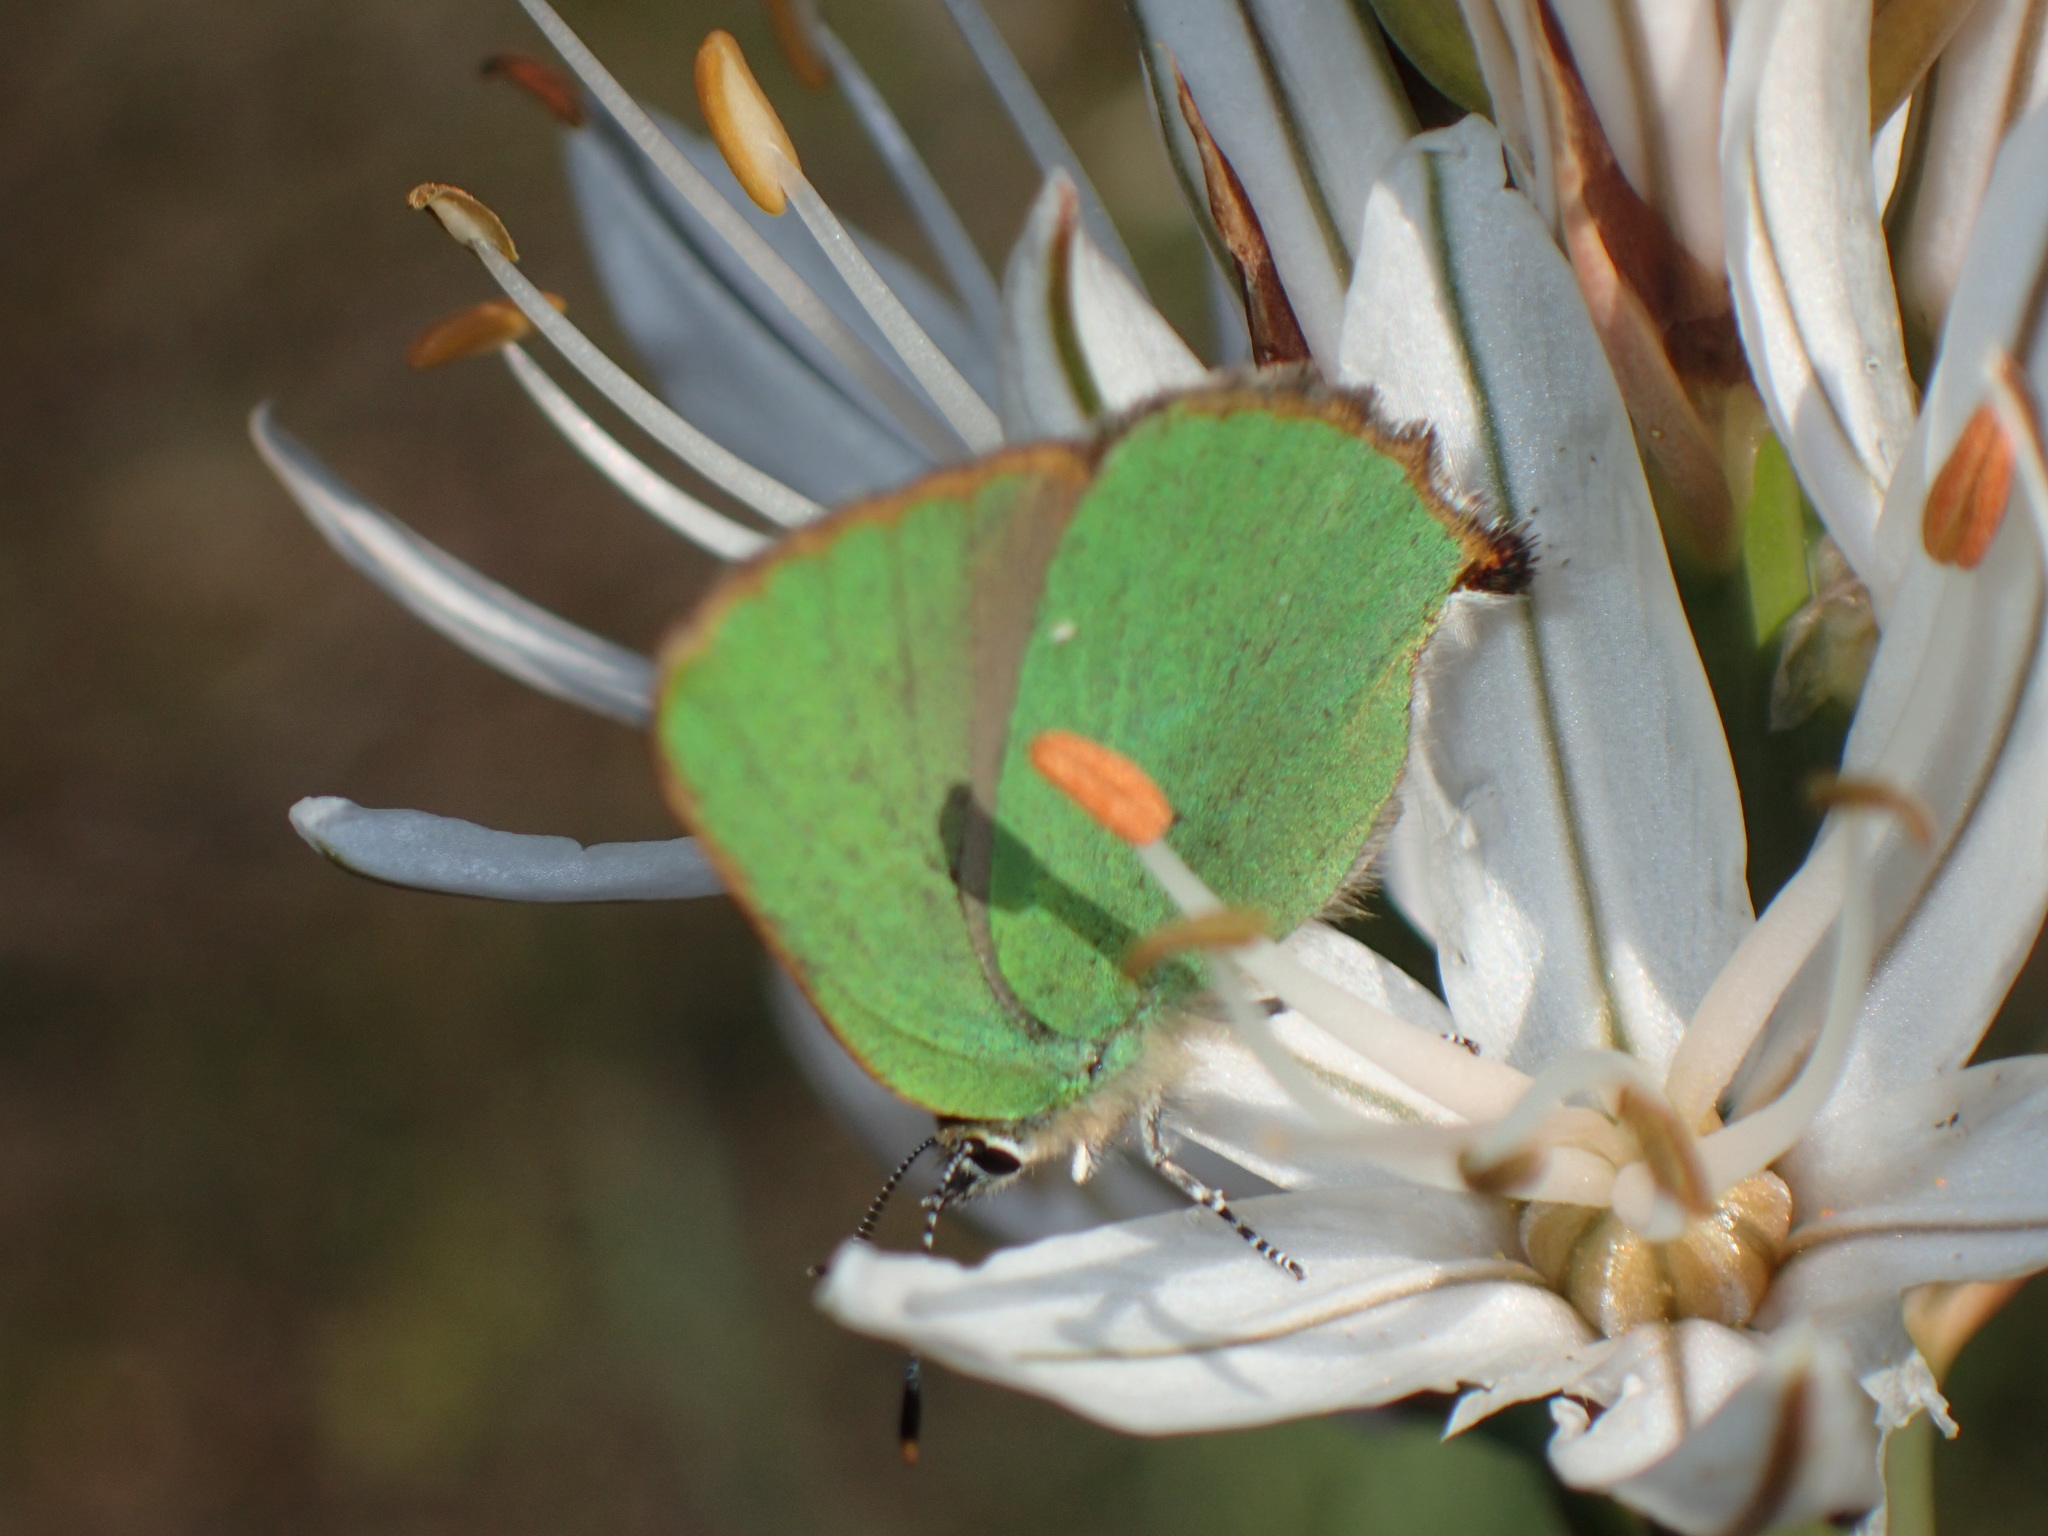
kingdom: Animalia
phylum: Arthropoda
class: Insecta
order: Lepidoptera
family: Lycaenidae
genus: Callophrys
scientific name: Callophrys rubi
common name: Green hairstreak
